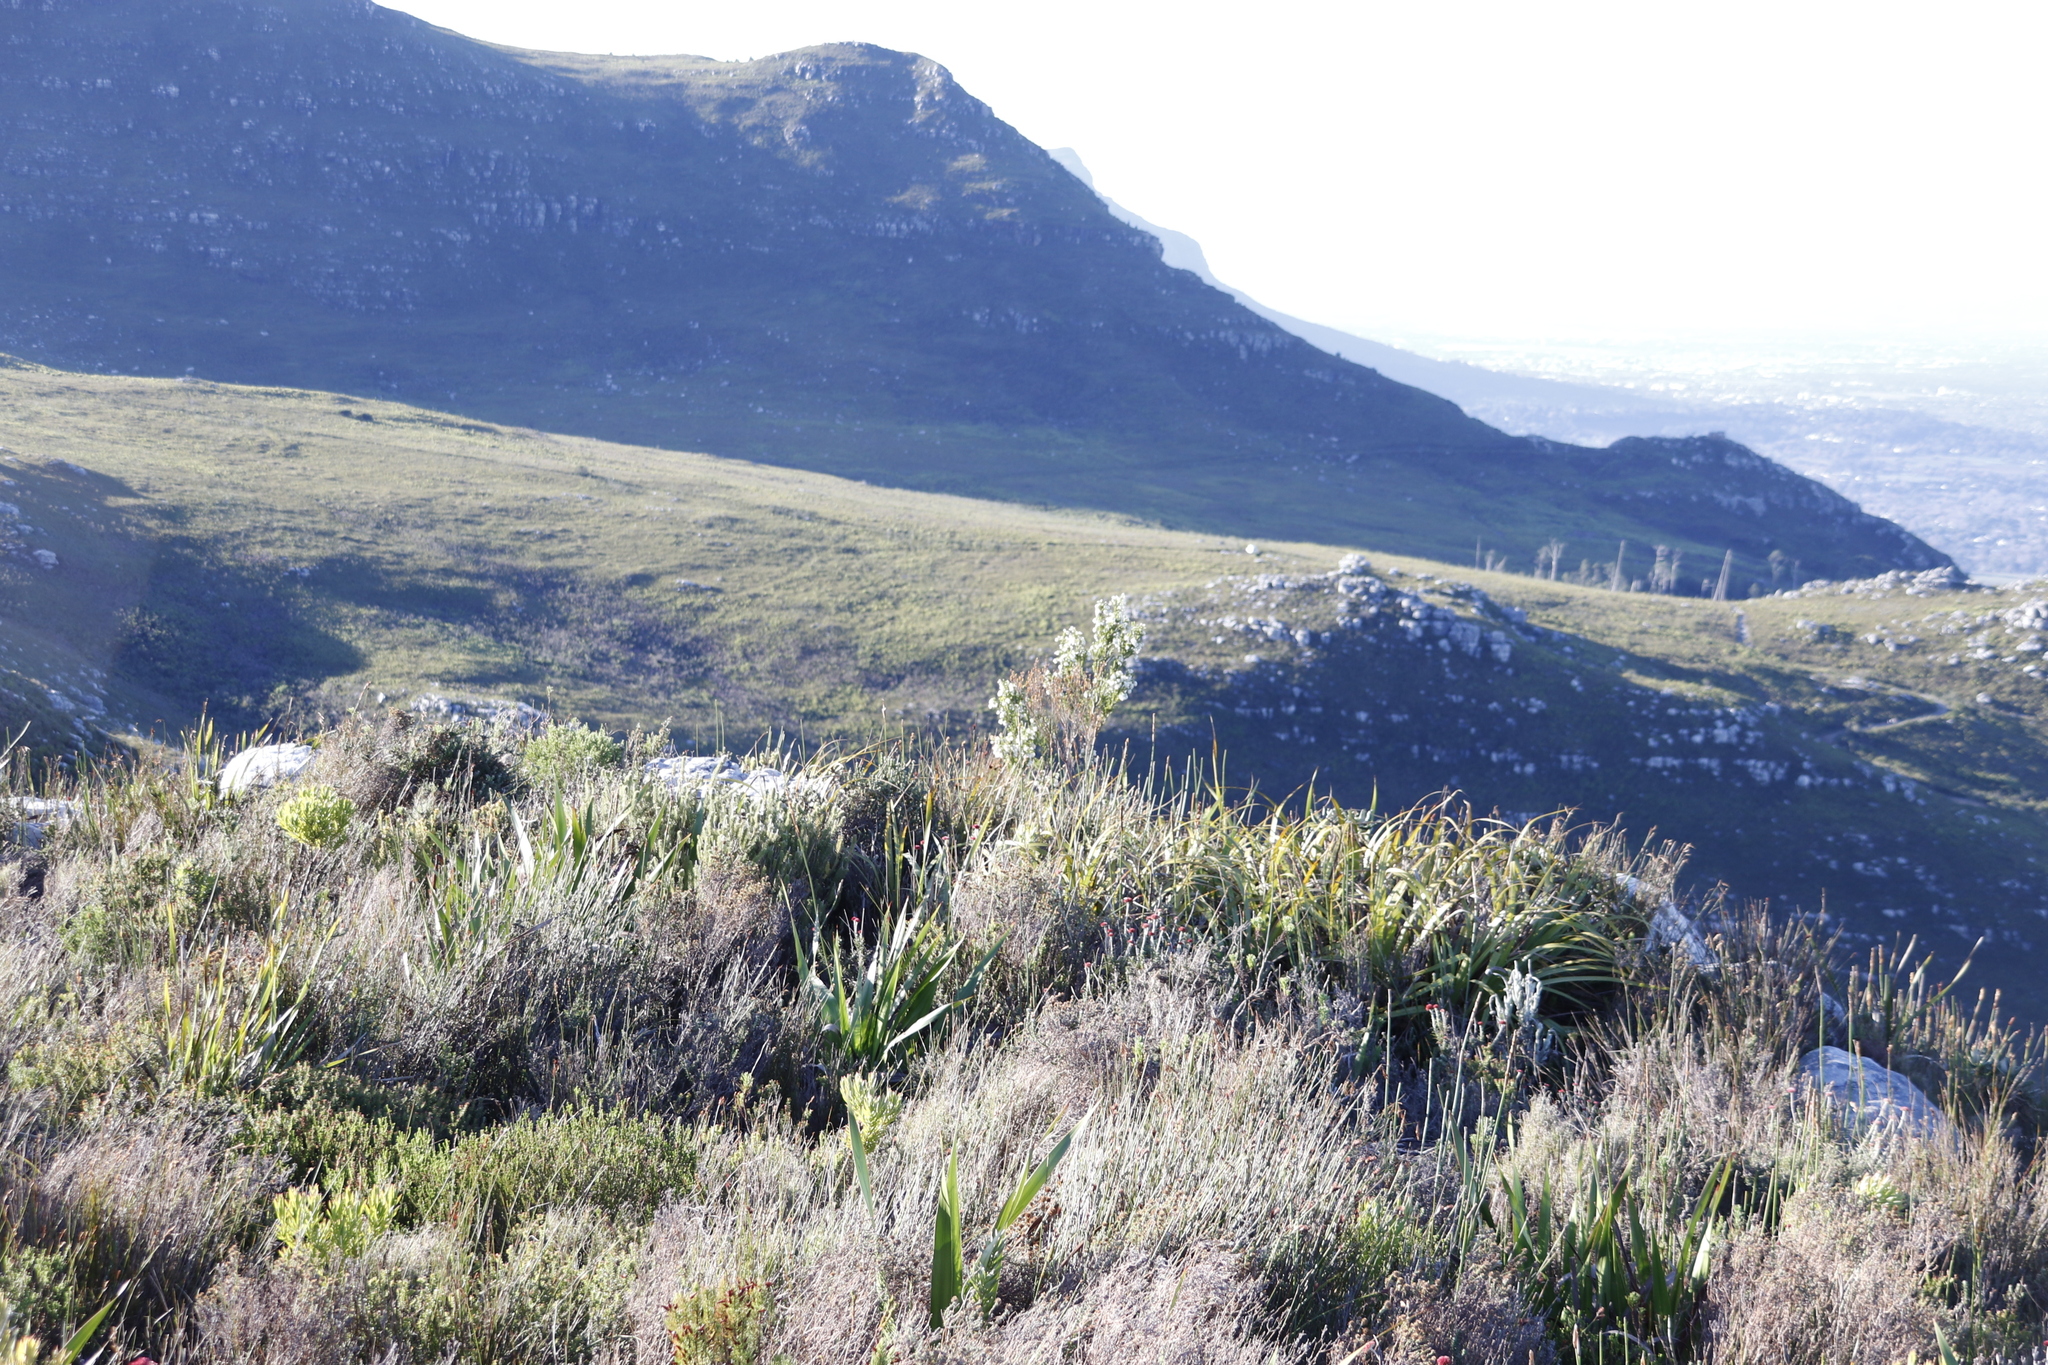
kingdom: Plantae
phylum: Tracheophyta
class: Magnoliopsida
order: Ericales
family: Ericaceae
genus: Erica
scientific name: Erica physodes
